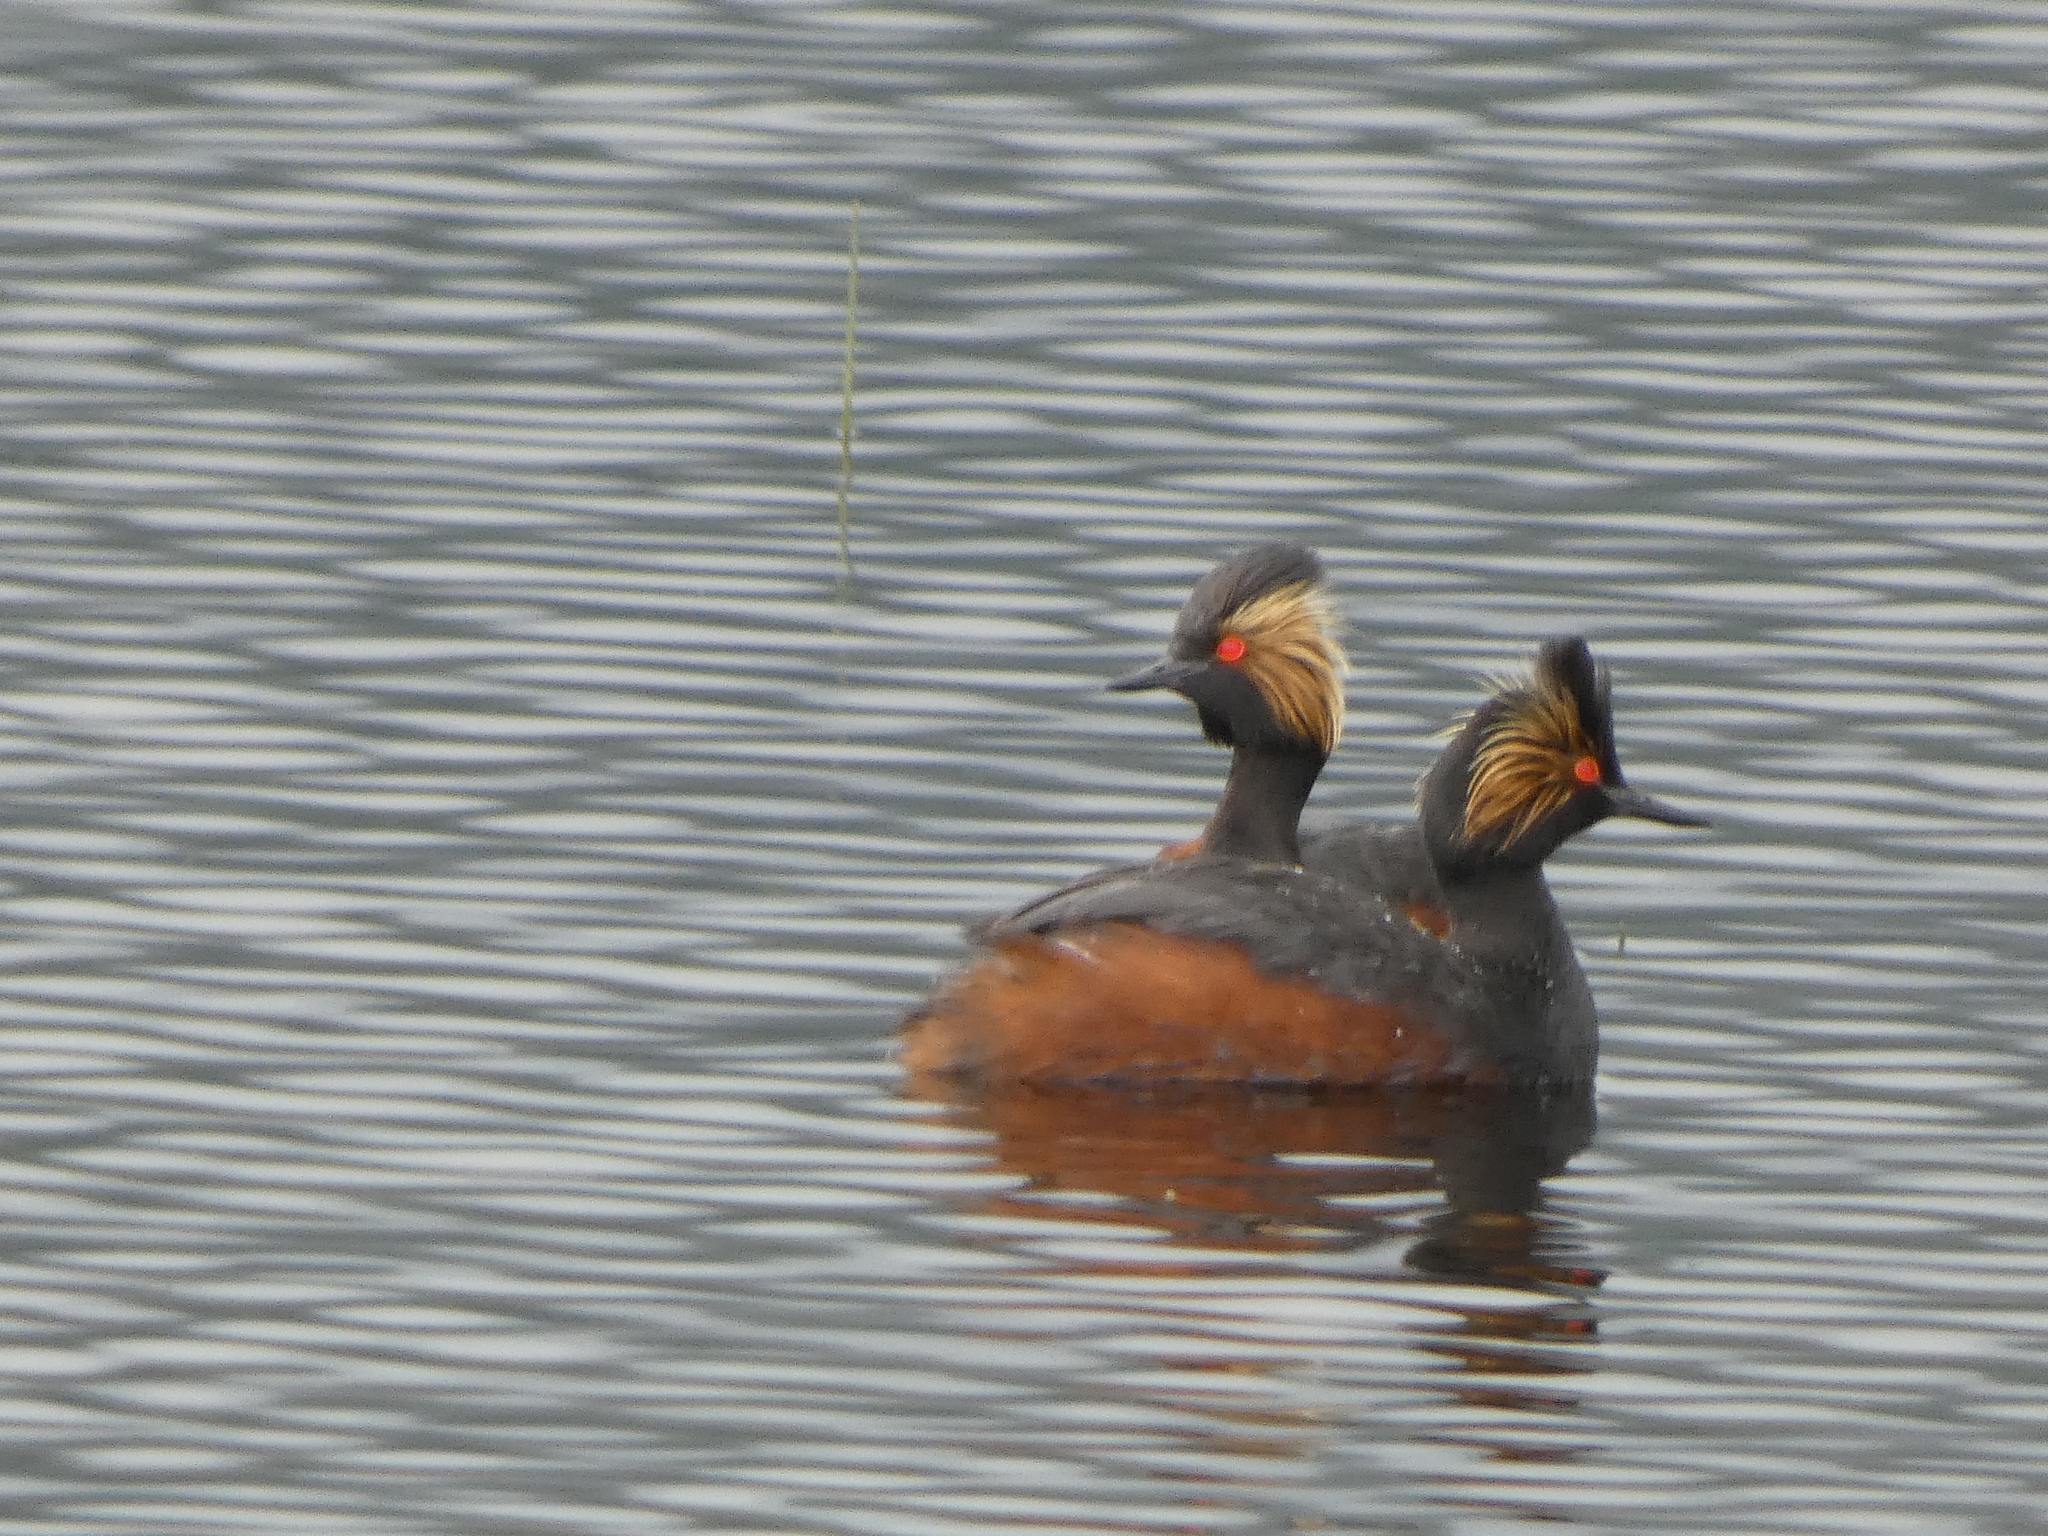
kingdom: Animalia
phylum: Chordata
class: Aves
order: Podicipediformes
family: Podicipedidae
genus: Podiceps
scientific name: Podiceps nigricollis
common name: Black-necked grebe
